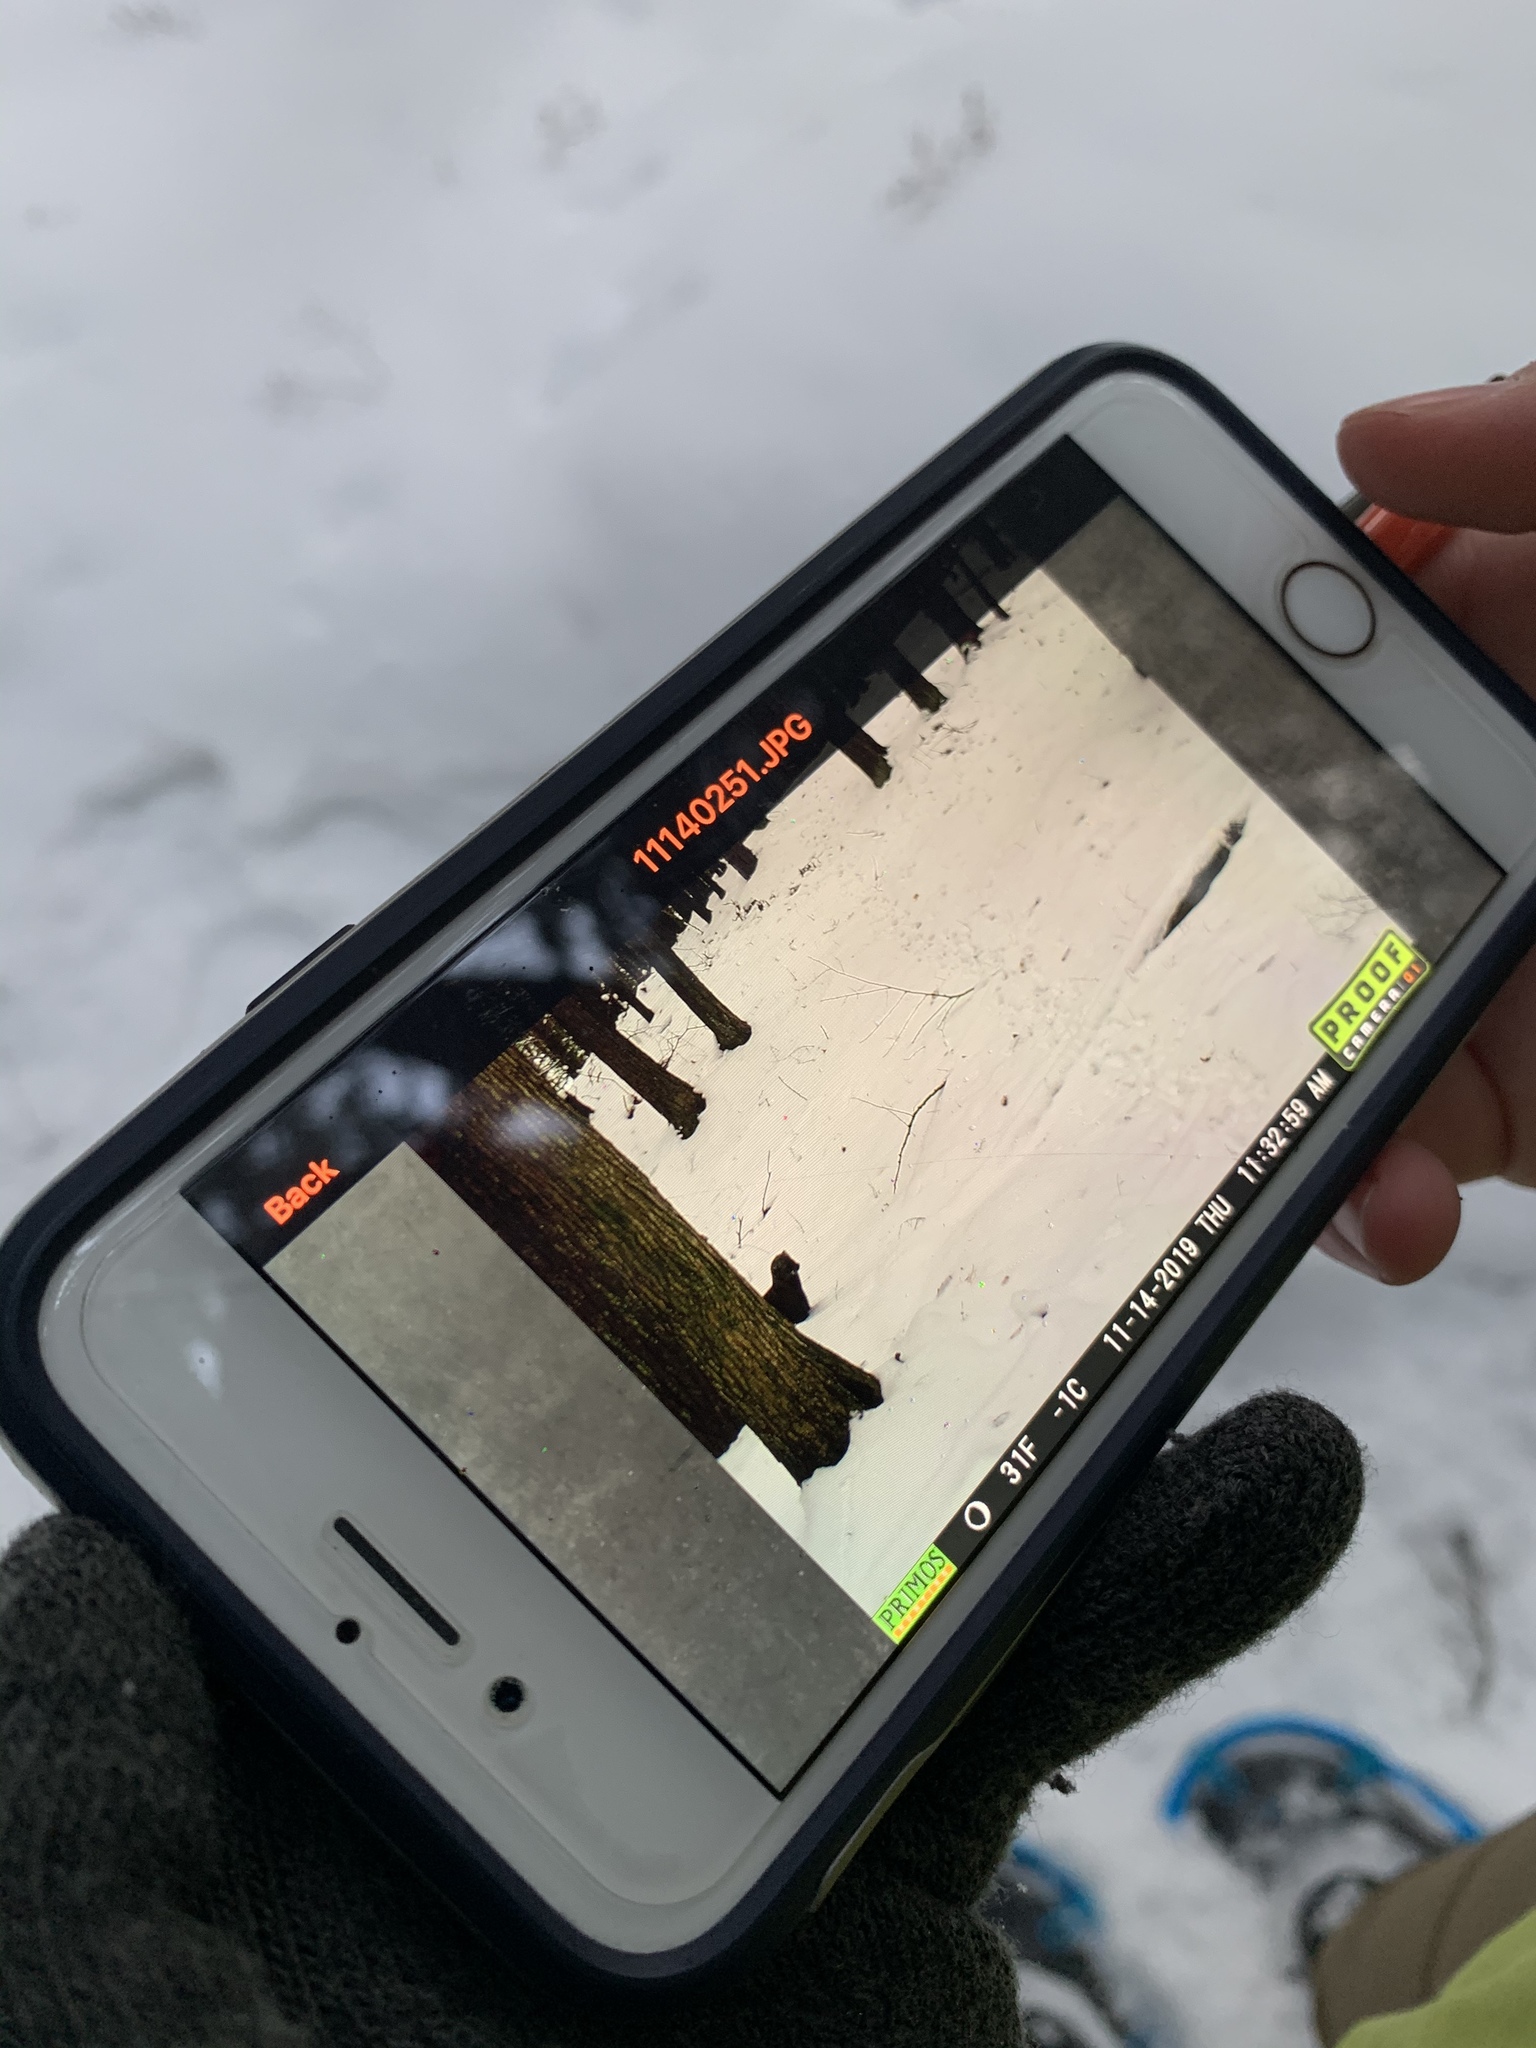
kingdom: Animalia
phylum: Chordata
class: Mammalia
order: Carnivora
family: Mustelidae
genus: Pekania
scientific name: Pekania pennanti
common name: Fisher
